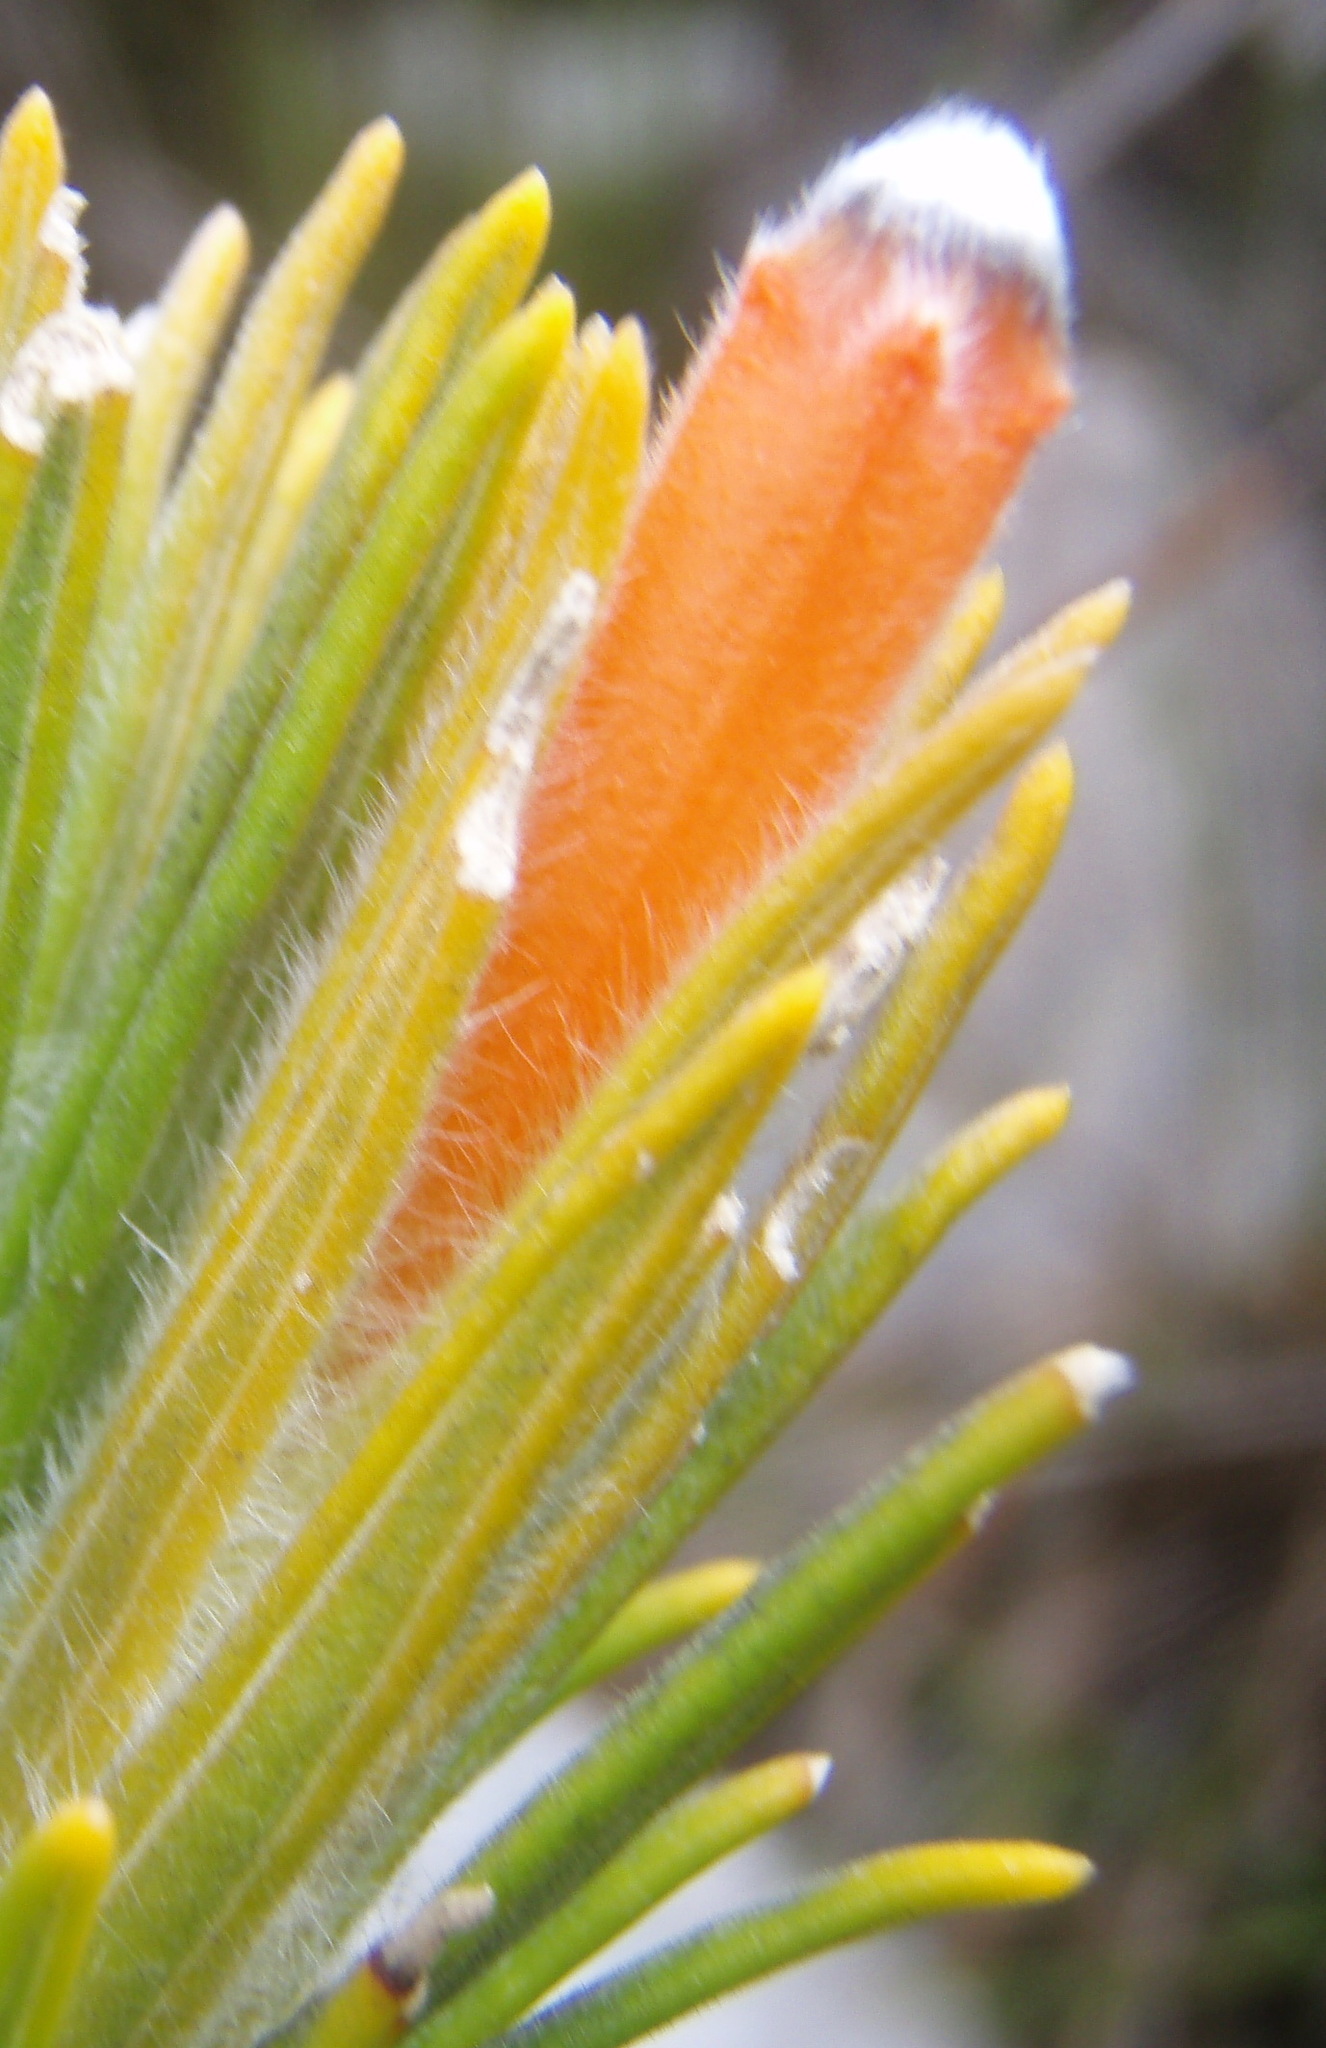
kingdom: Plantae
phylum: Tracheophyta
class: Magnoliopsida
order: Lamiales
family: Stilbaceae
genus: Retzia
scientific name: Retzia capensis
